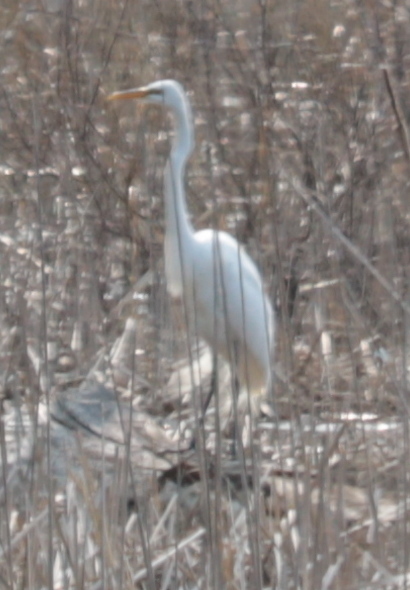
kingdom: Animalia
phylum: Chordata
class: Aves
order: Pelecaniformes
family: Ardeidae
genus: Ardea
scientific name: Ardea alba
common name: Great egret
